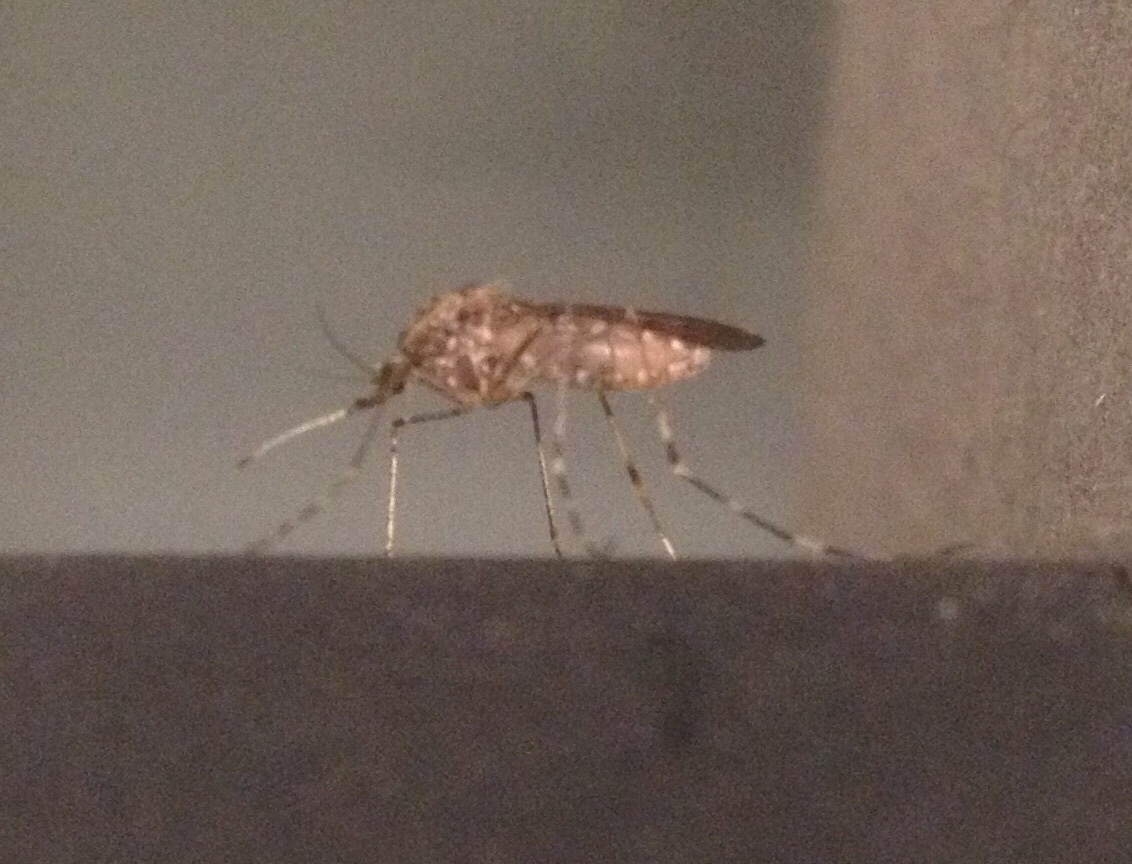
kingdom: Animalia
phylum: Arthropoda
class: Insecta
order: Diptera
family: Culicidae
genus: Culiseta
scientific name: Culiseta annulata
